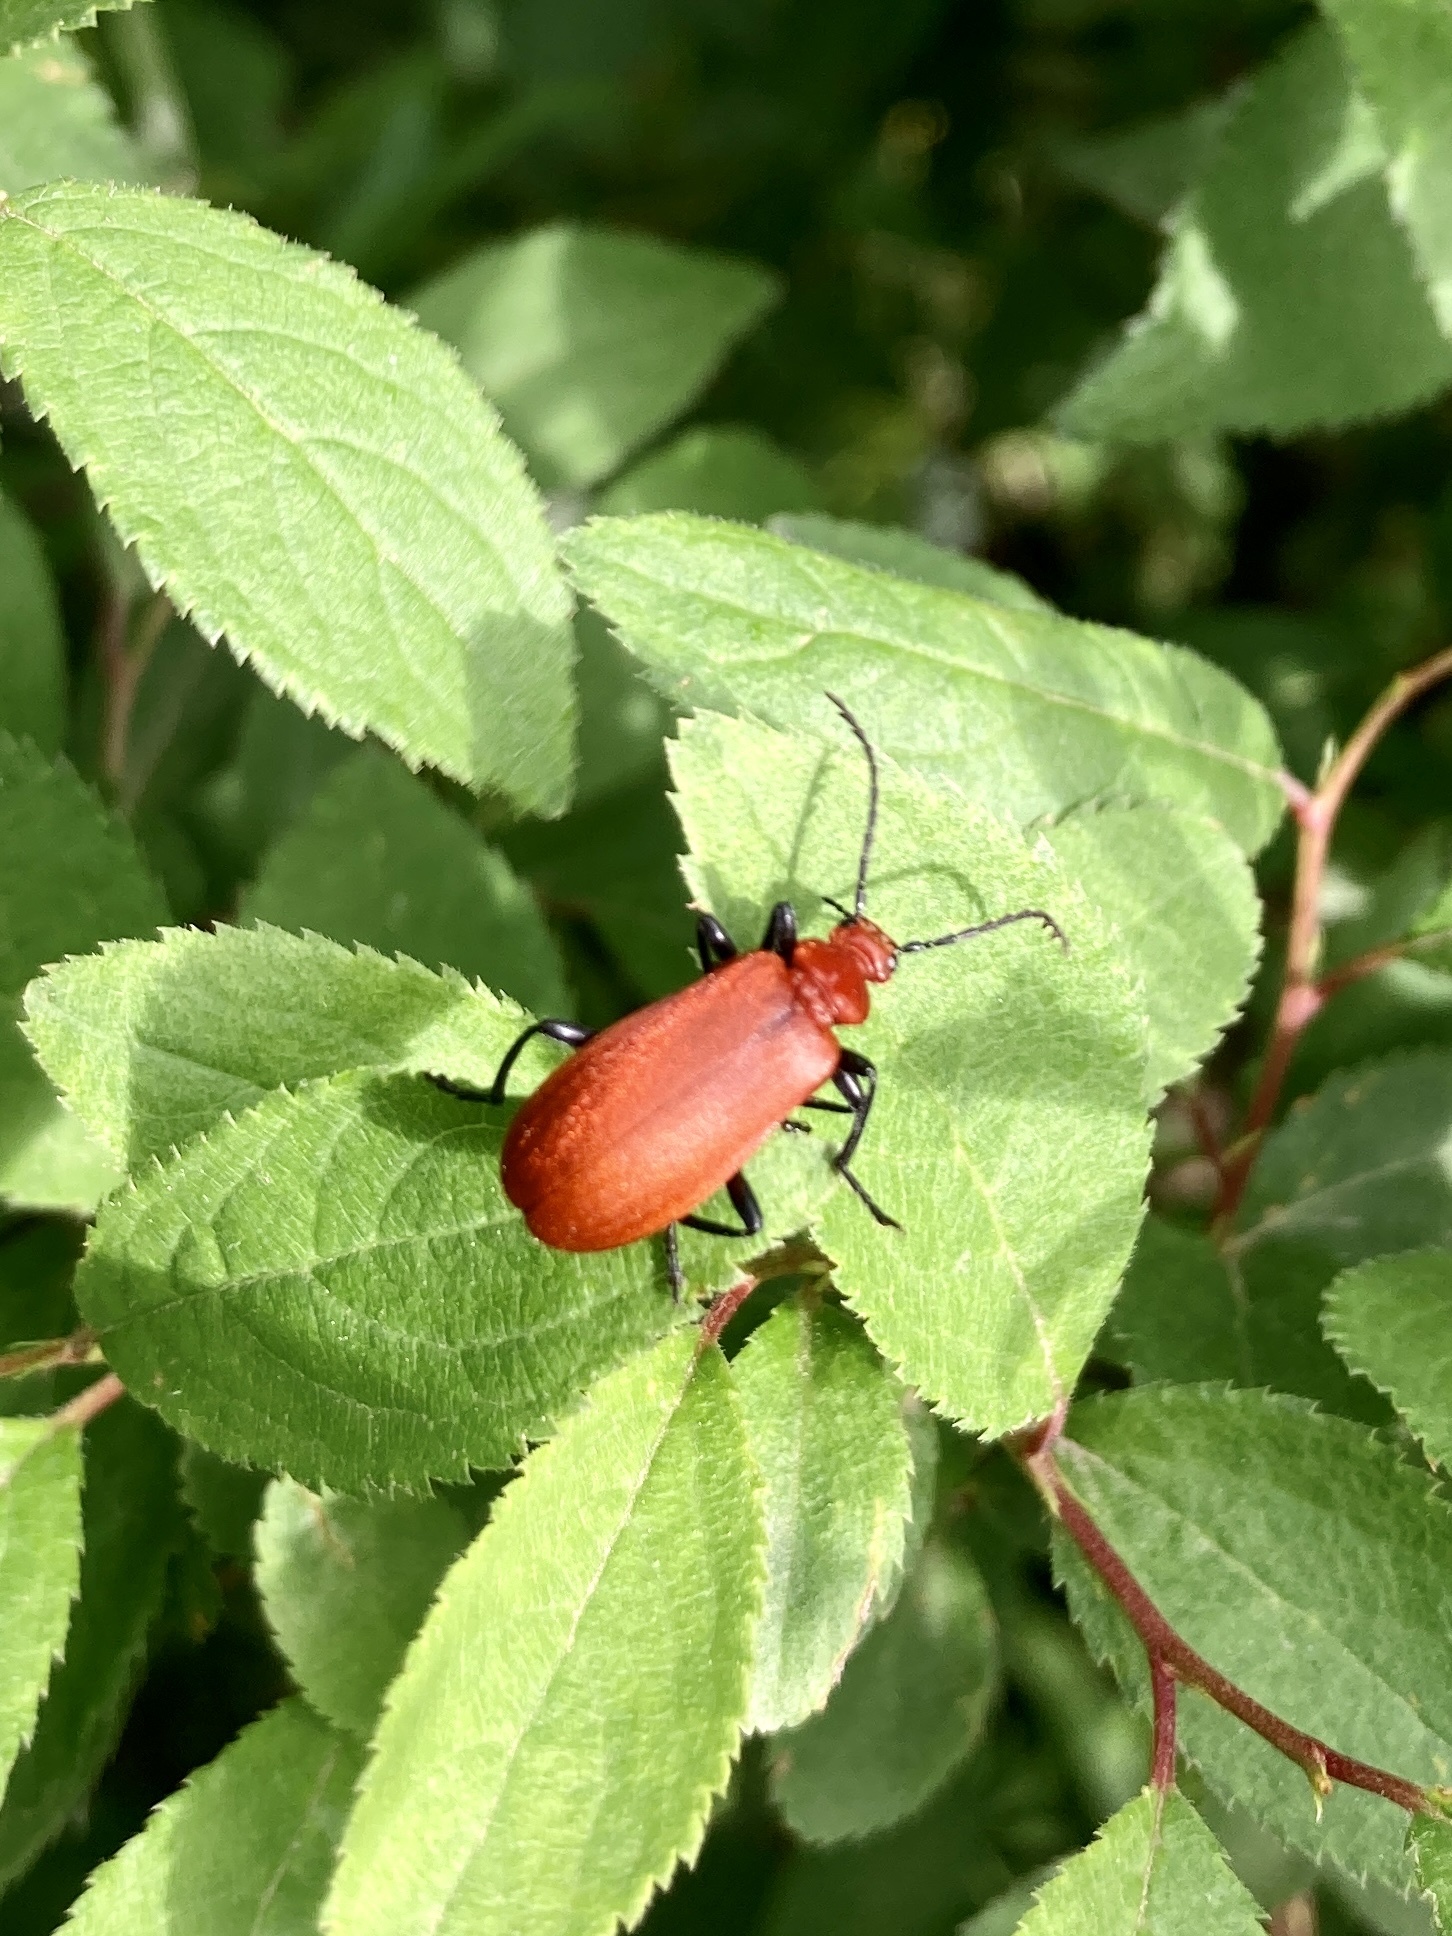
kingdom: Animalia
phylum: Arthropoda
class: Insecta
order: Coleoptera
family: Pyrochroidae
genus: Pyrochroa
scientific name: Pyrochroa serraticornis
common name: Red-headed cardinal beetle
